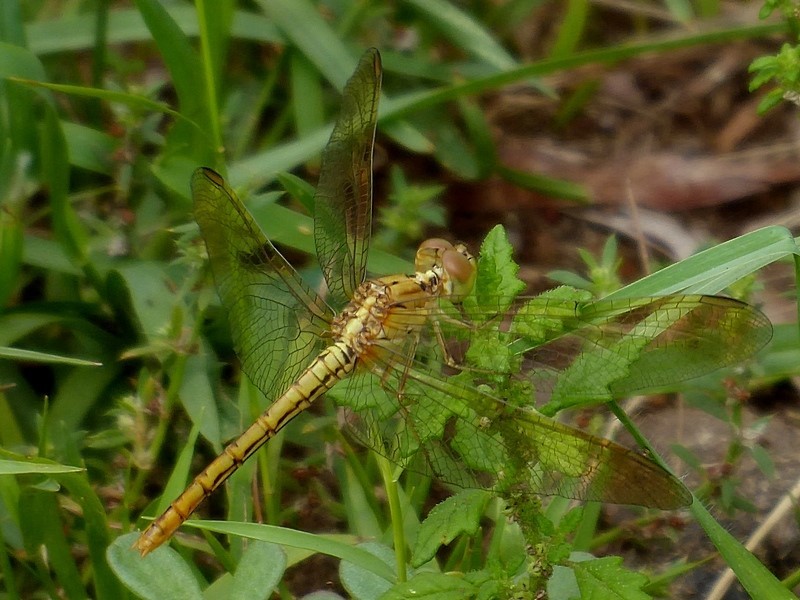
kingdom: Animalia
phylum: Arthropoda
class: Insecta
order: Odonata
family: Libellulidae
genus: Diplacodes
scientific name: Diplacodes haematodes
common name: Scarlet percher
